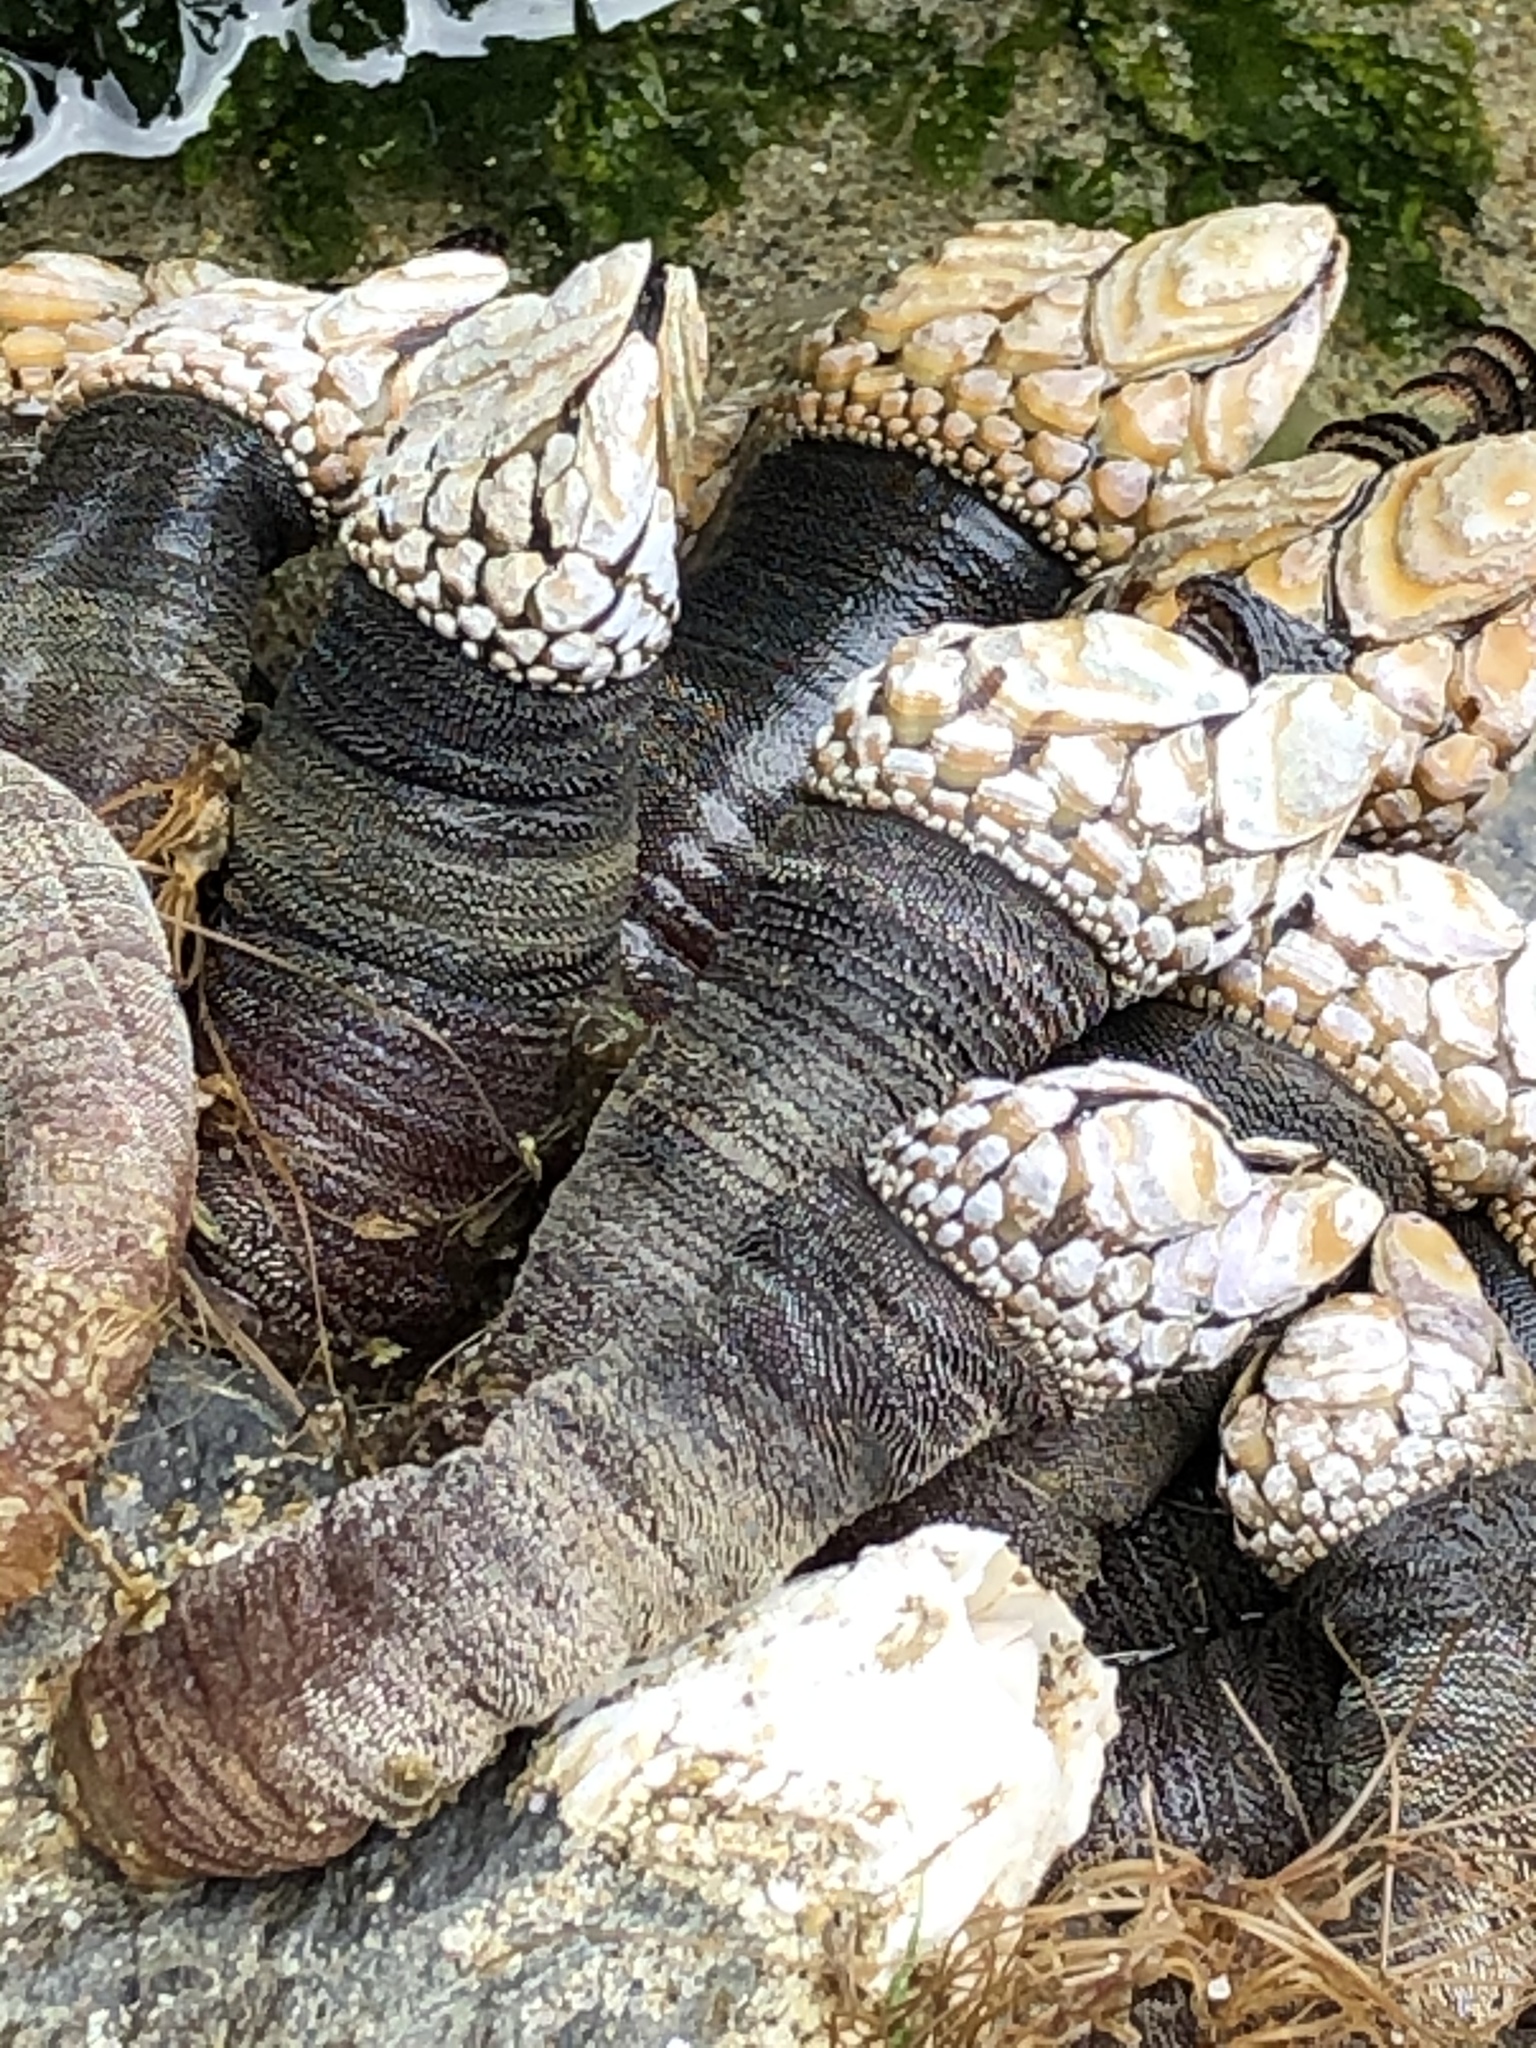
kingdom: Animalia
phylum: Arthropoda
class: Maxillopoda
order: Pedunculata
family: Pollicipedidae
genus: Pollicipes
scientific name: Pollicipes polymerus
